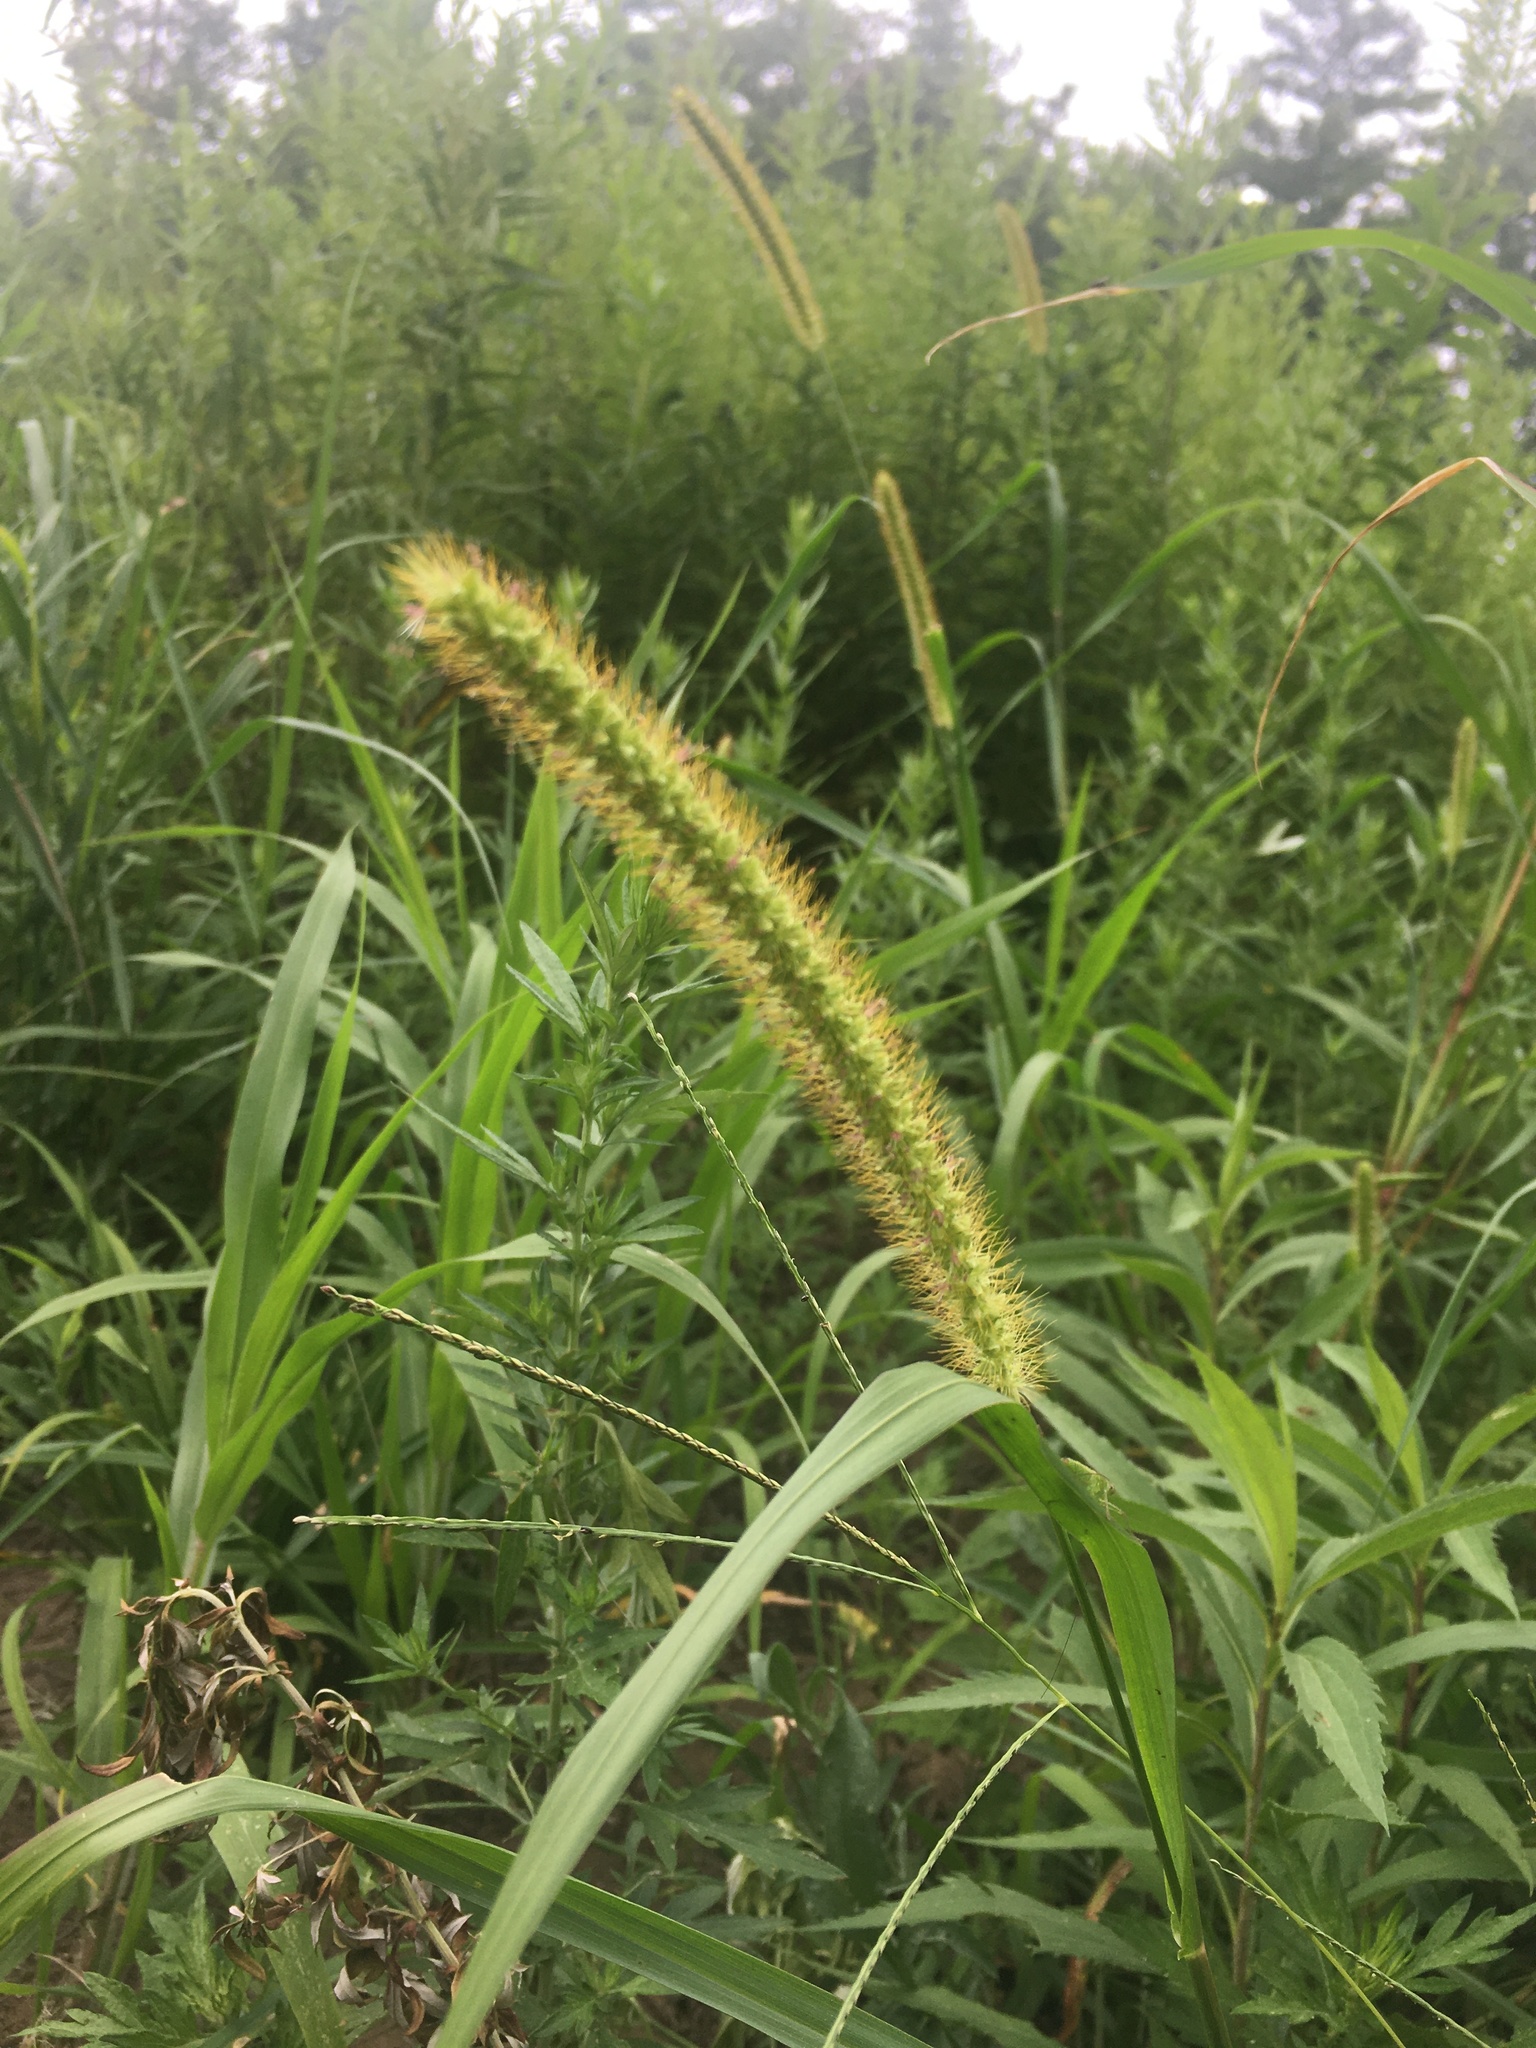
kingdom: Plantae
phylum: Tracheophyta
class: Liliopsida
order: Poales
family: Poaceae
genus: Setaria
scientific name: Setaria pumila
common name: Yellow bristle-grass
